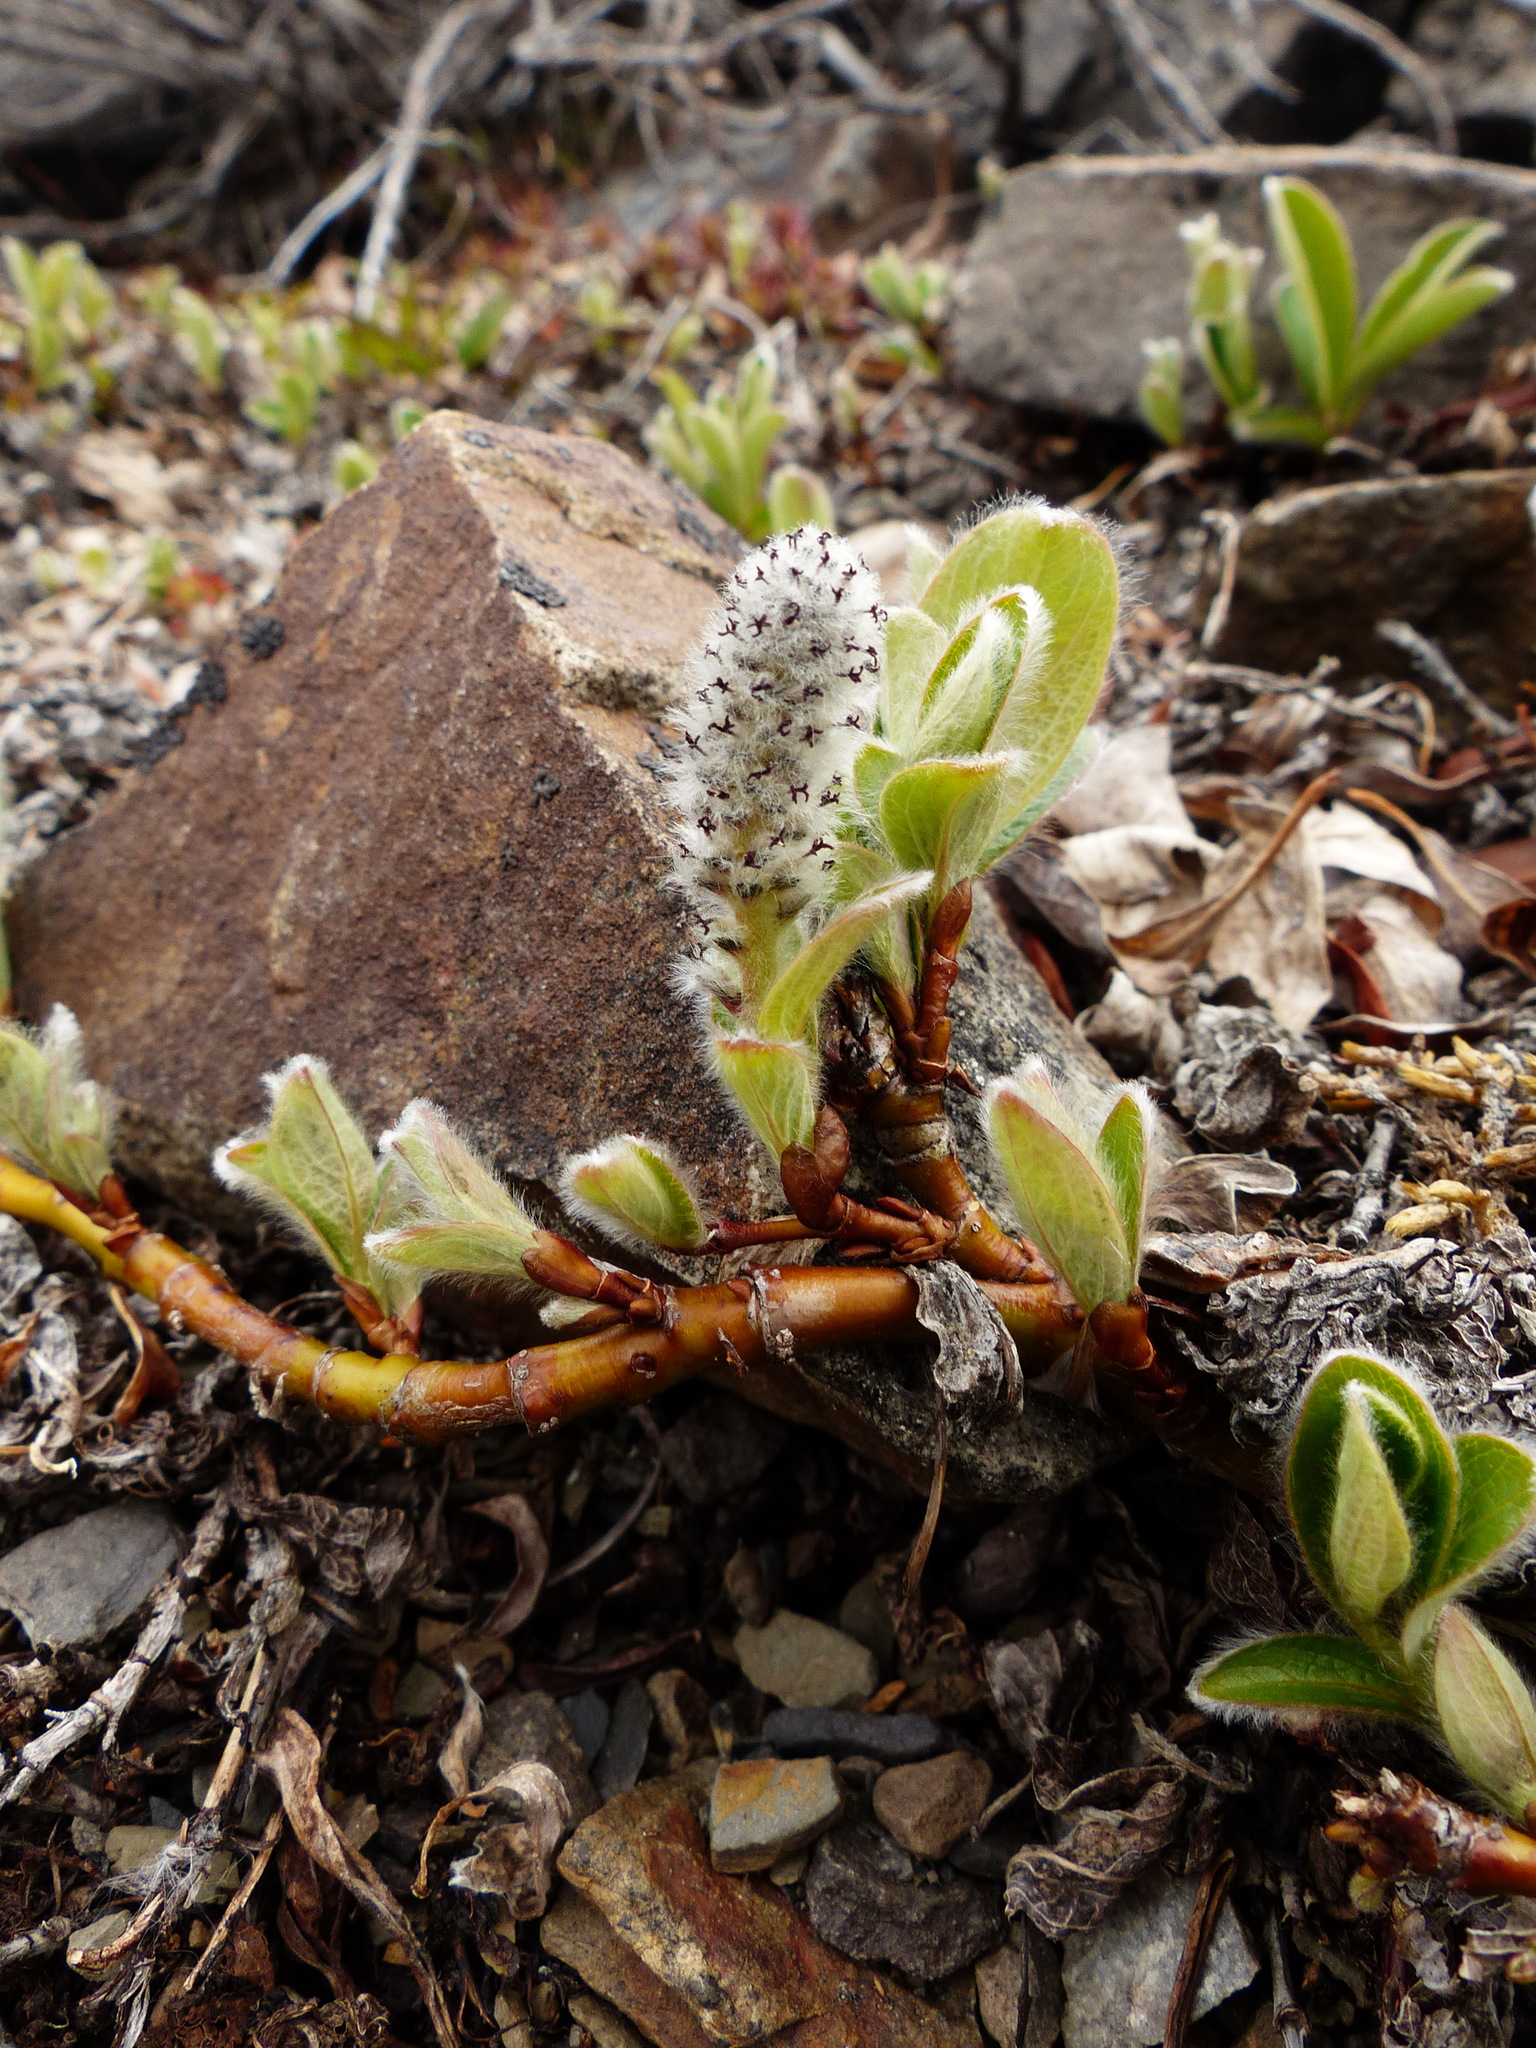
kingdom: Plantae
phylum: Tracheophyta
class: Magnoliopsida
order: Malpighiales
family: Salicaceae
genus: Salix
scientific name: Salix arctica
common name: Arctic willow
